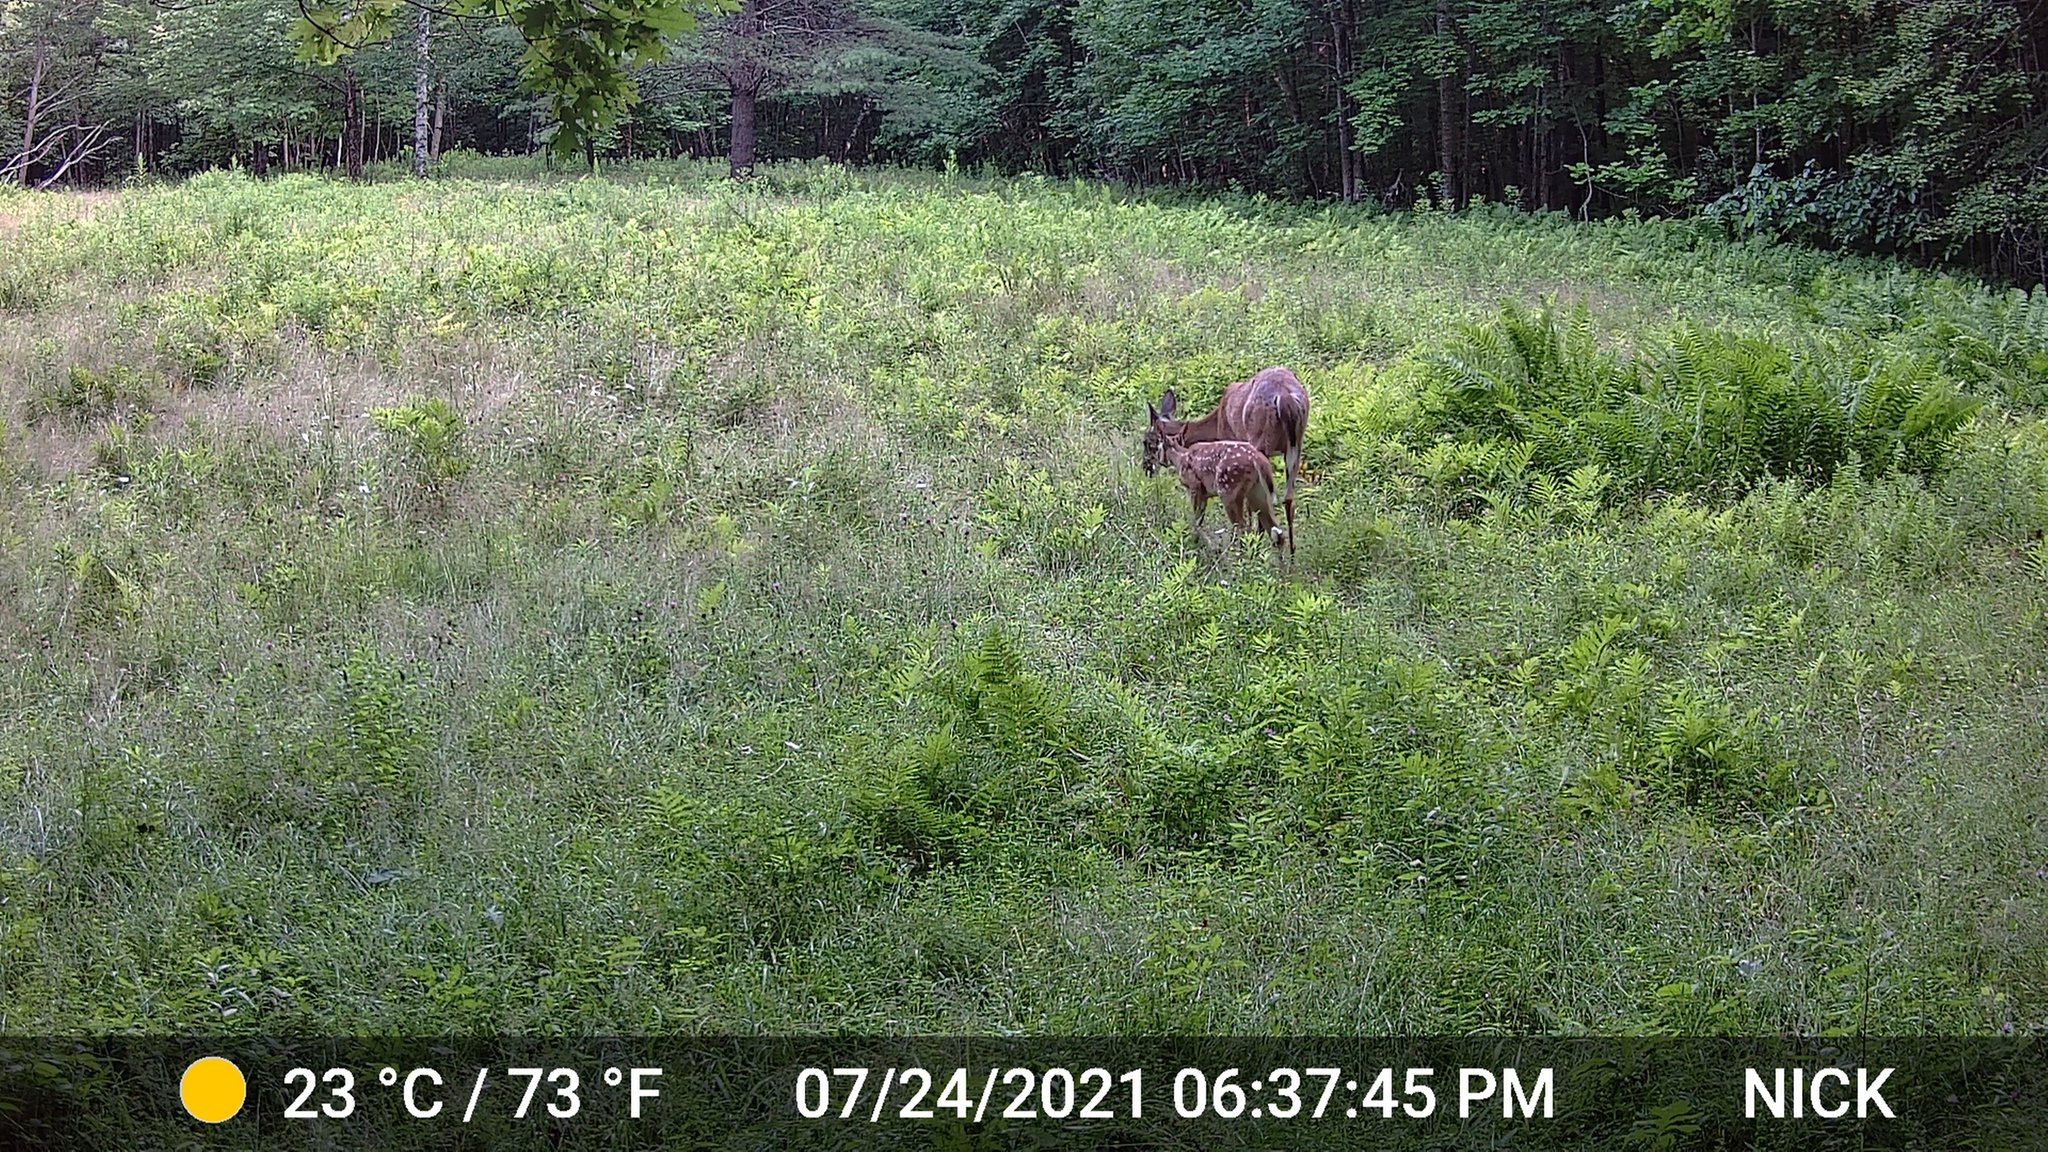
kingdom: Animalia
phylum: Chordata
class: Mammalia
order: Artiodactyla
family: Cervidae
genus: Odocoileus
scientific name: Odocoileus virginianus
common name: White-tailed deer
